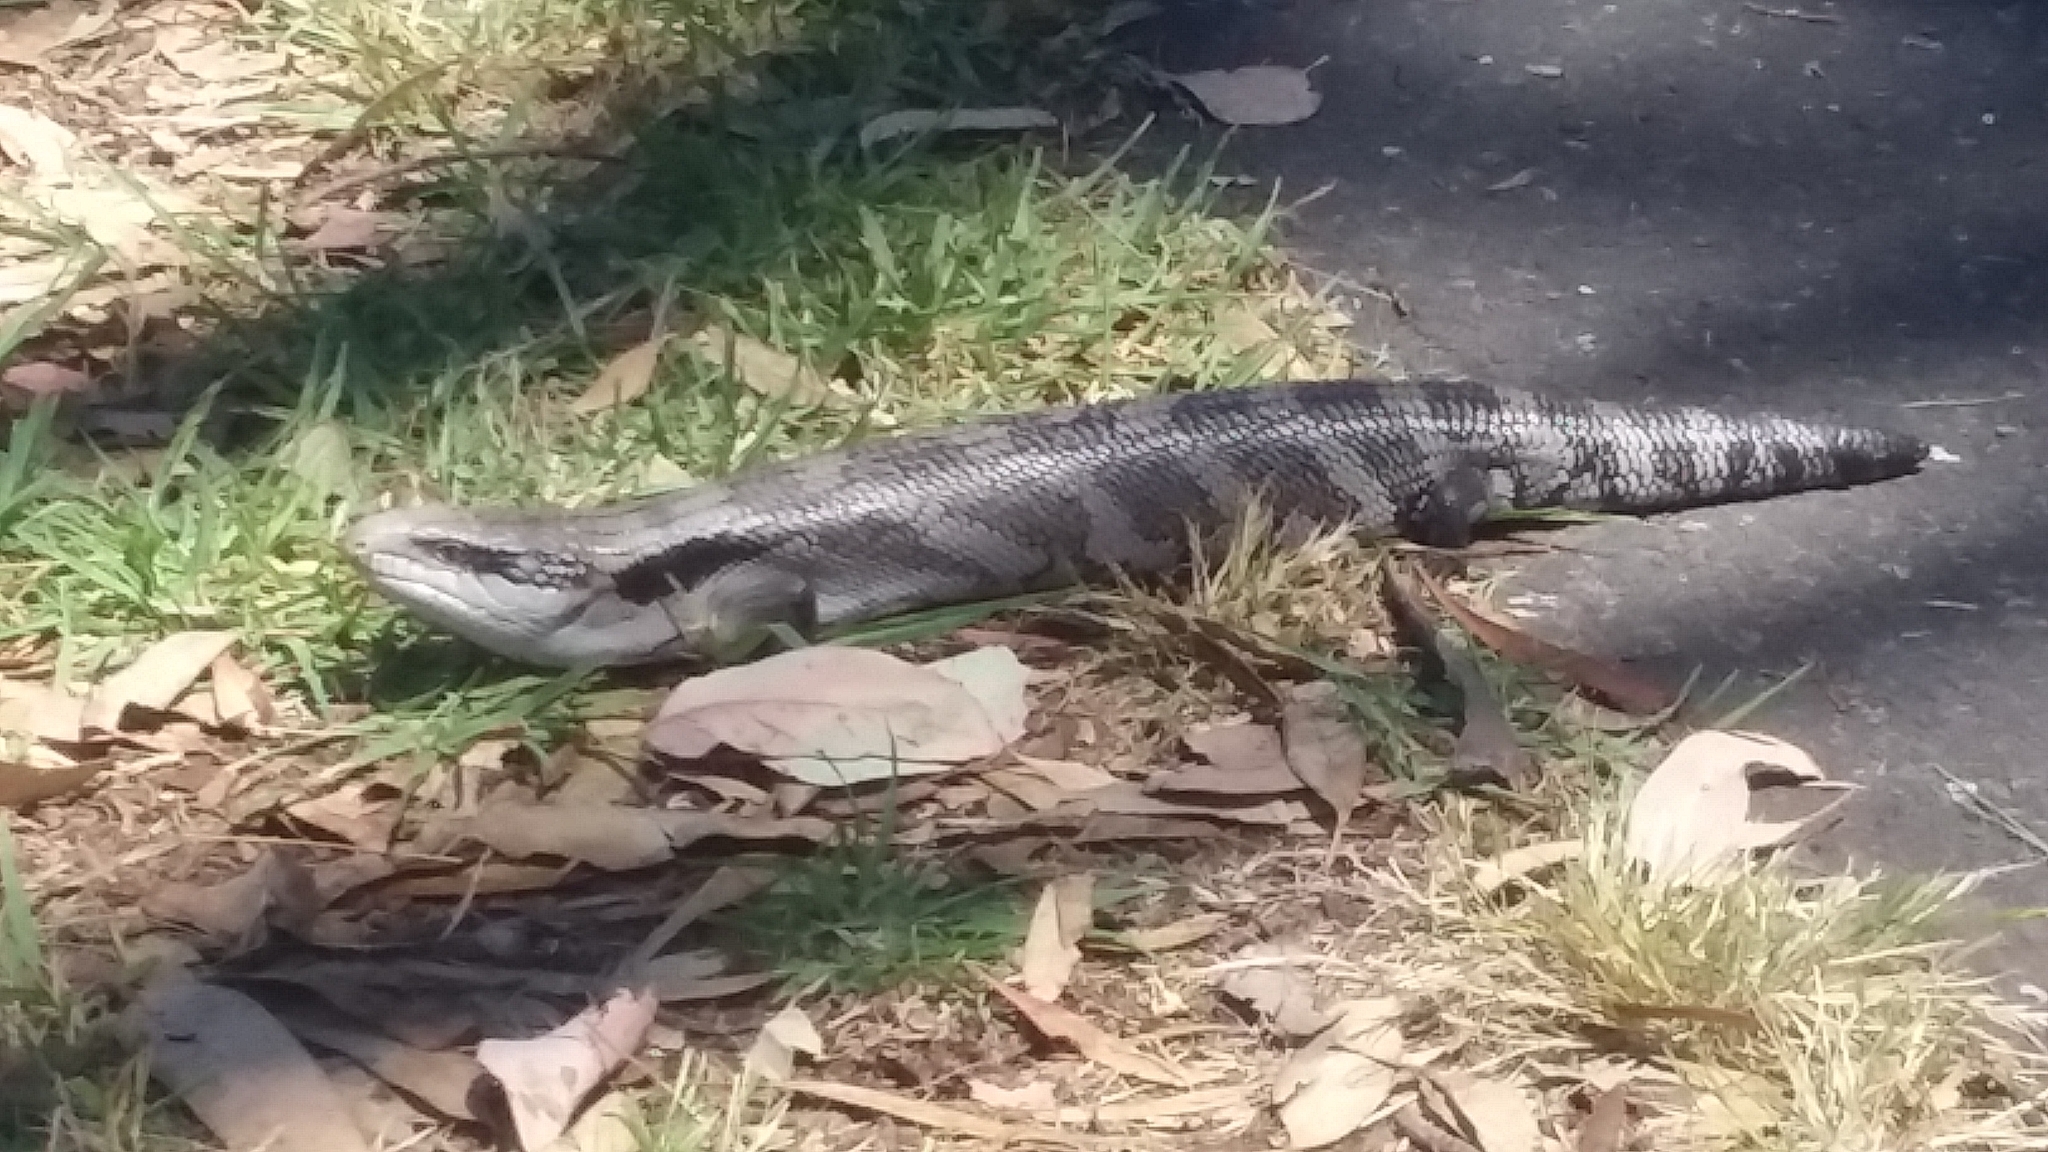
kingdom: Animalia
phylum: Chordata
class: Squamata
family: Scincidae
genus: Tiliqua
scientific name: Tiliqua scincoides
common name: Common bluetongue
